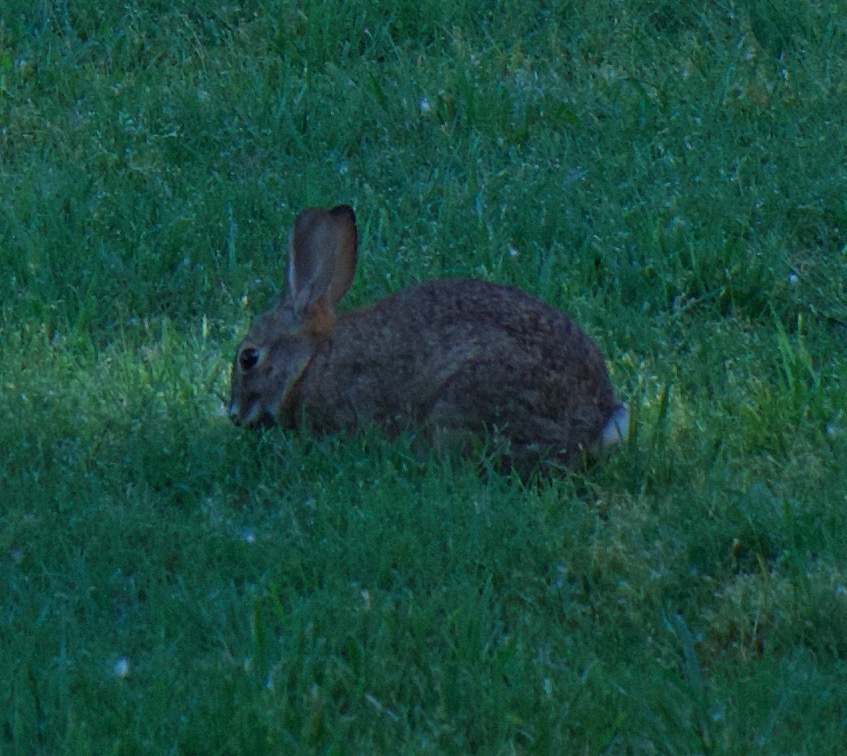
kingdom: Animalia
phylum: Chordata
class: Mammalia
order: Lagomorpha
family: Leporidae
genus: Sylvilagus
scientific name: Sylvilagus audubonii
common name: Desert cottontail
